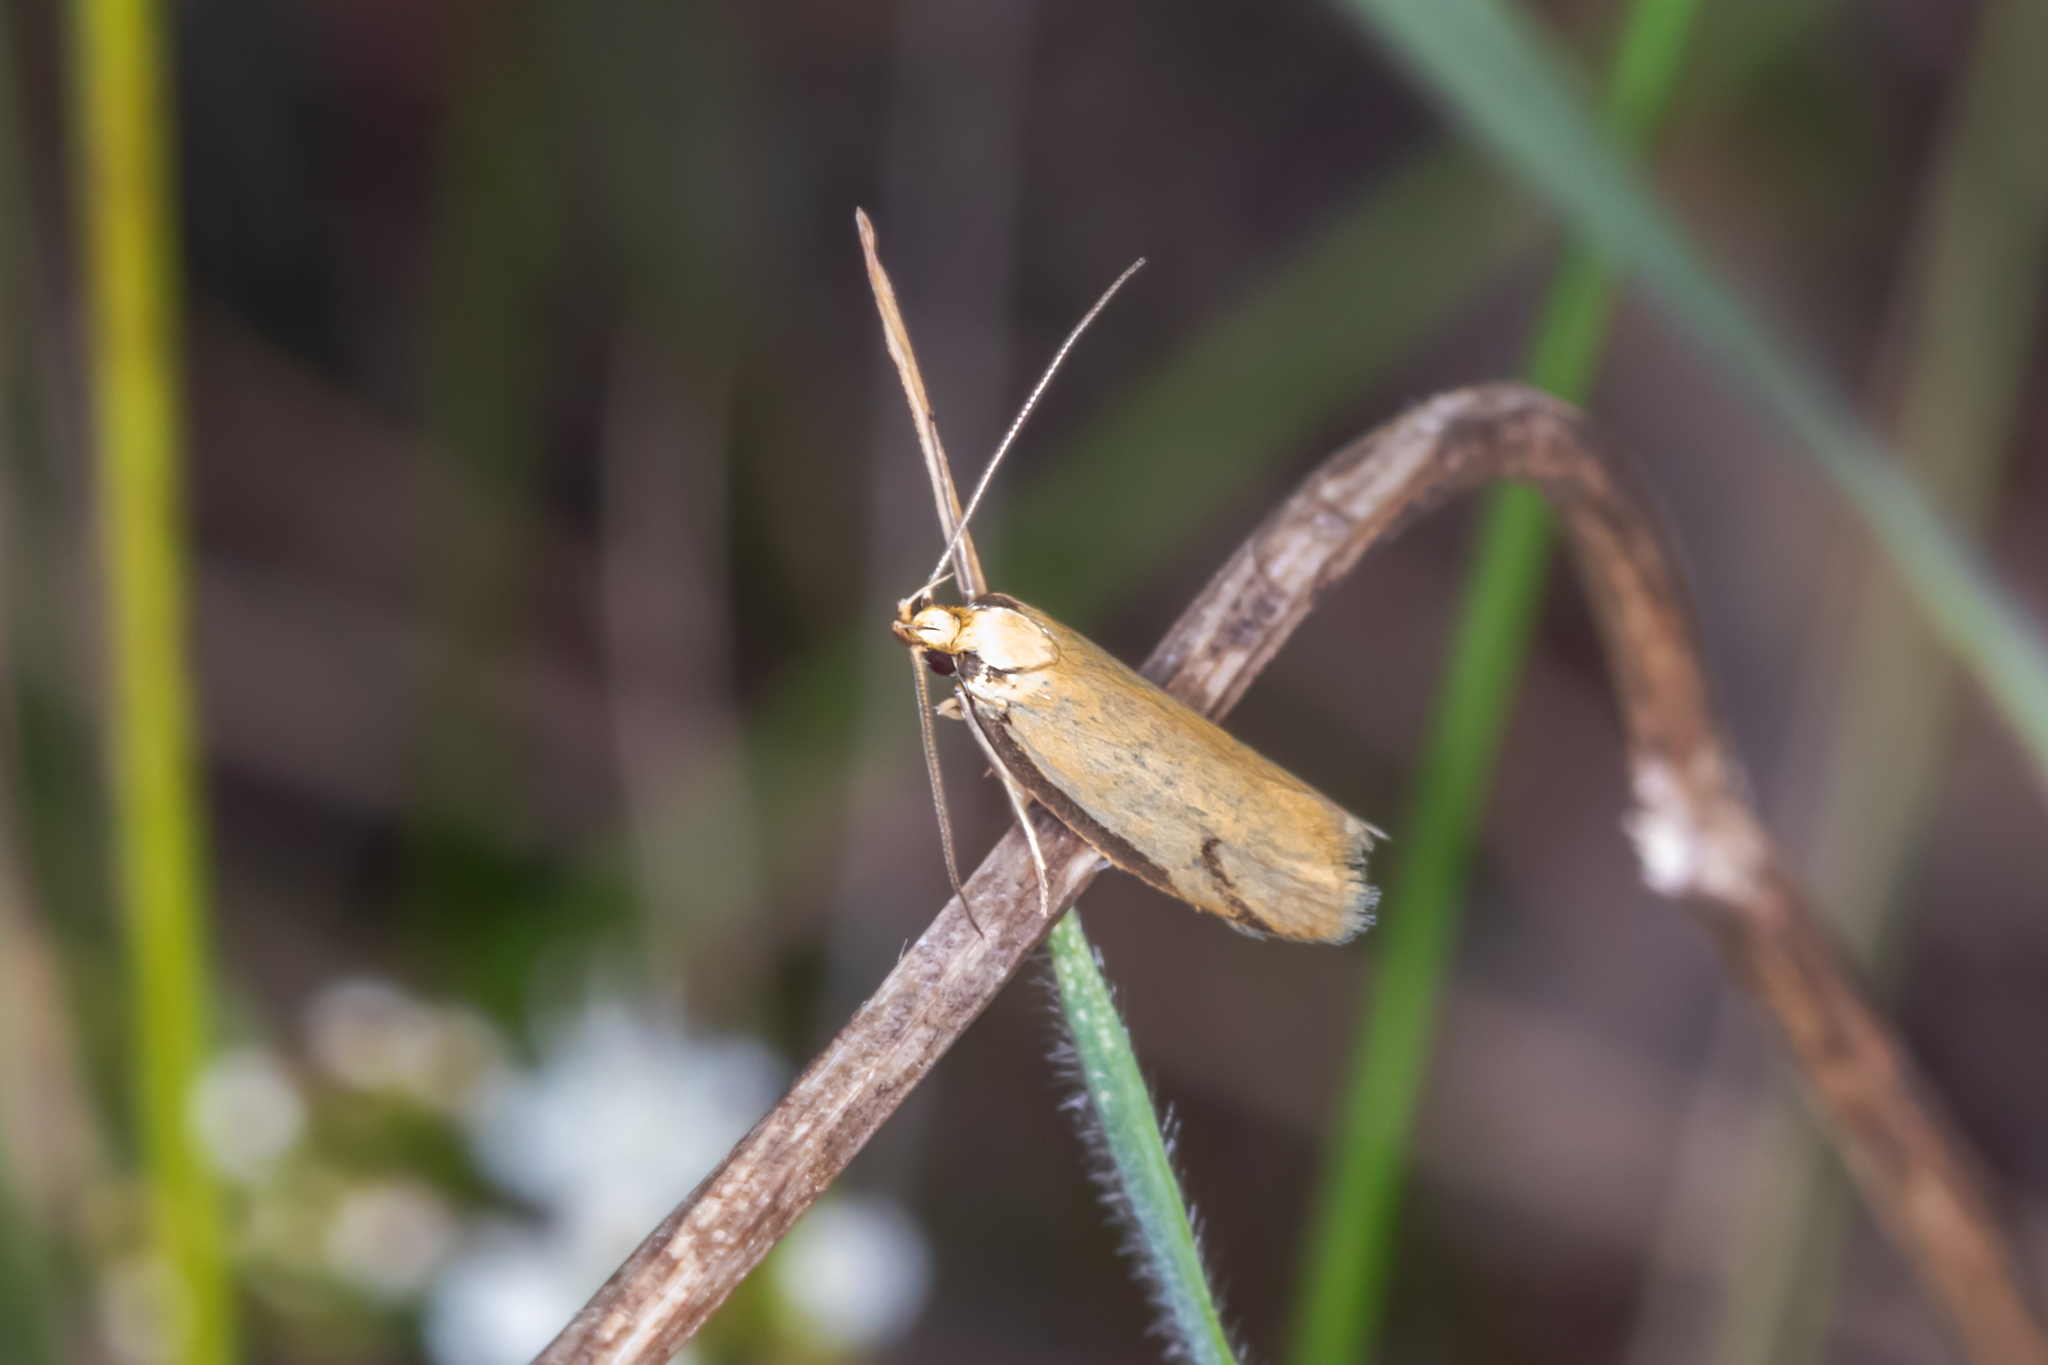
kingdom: Animalia
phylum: Arthropoda
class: Insecta
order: Lepidoptera
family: Oecophoridae
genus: Philobota
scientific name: Philobota protecta
